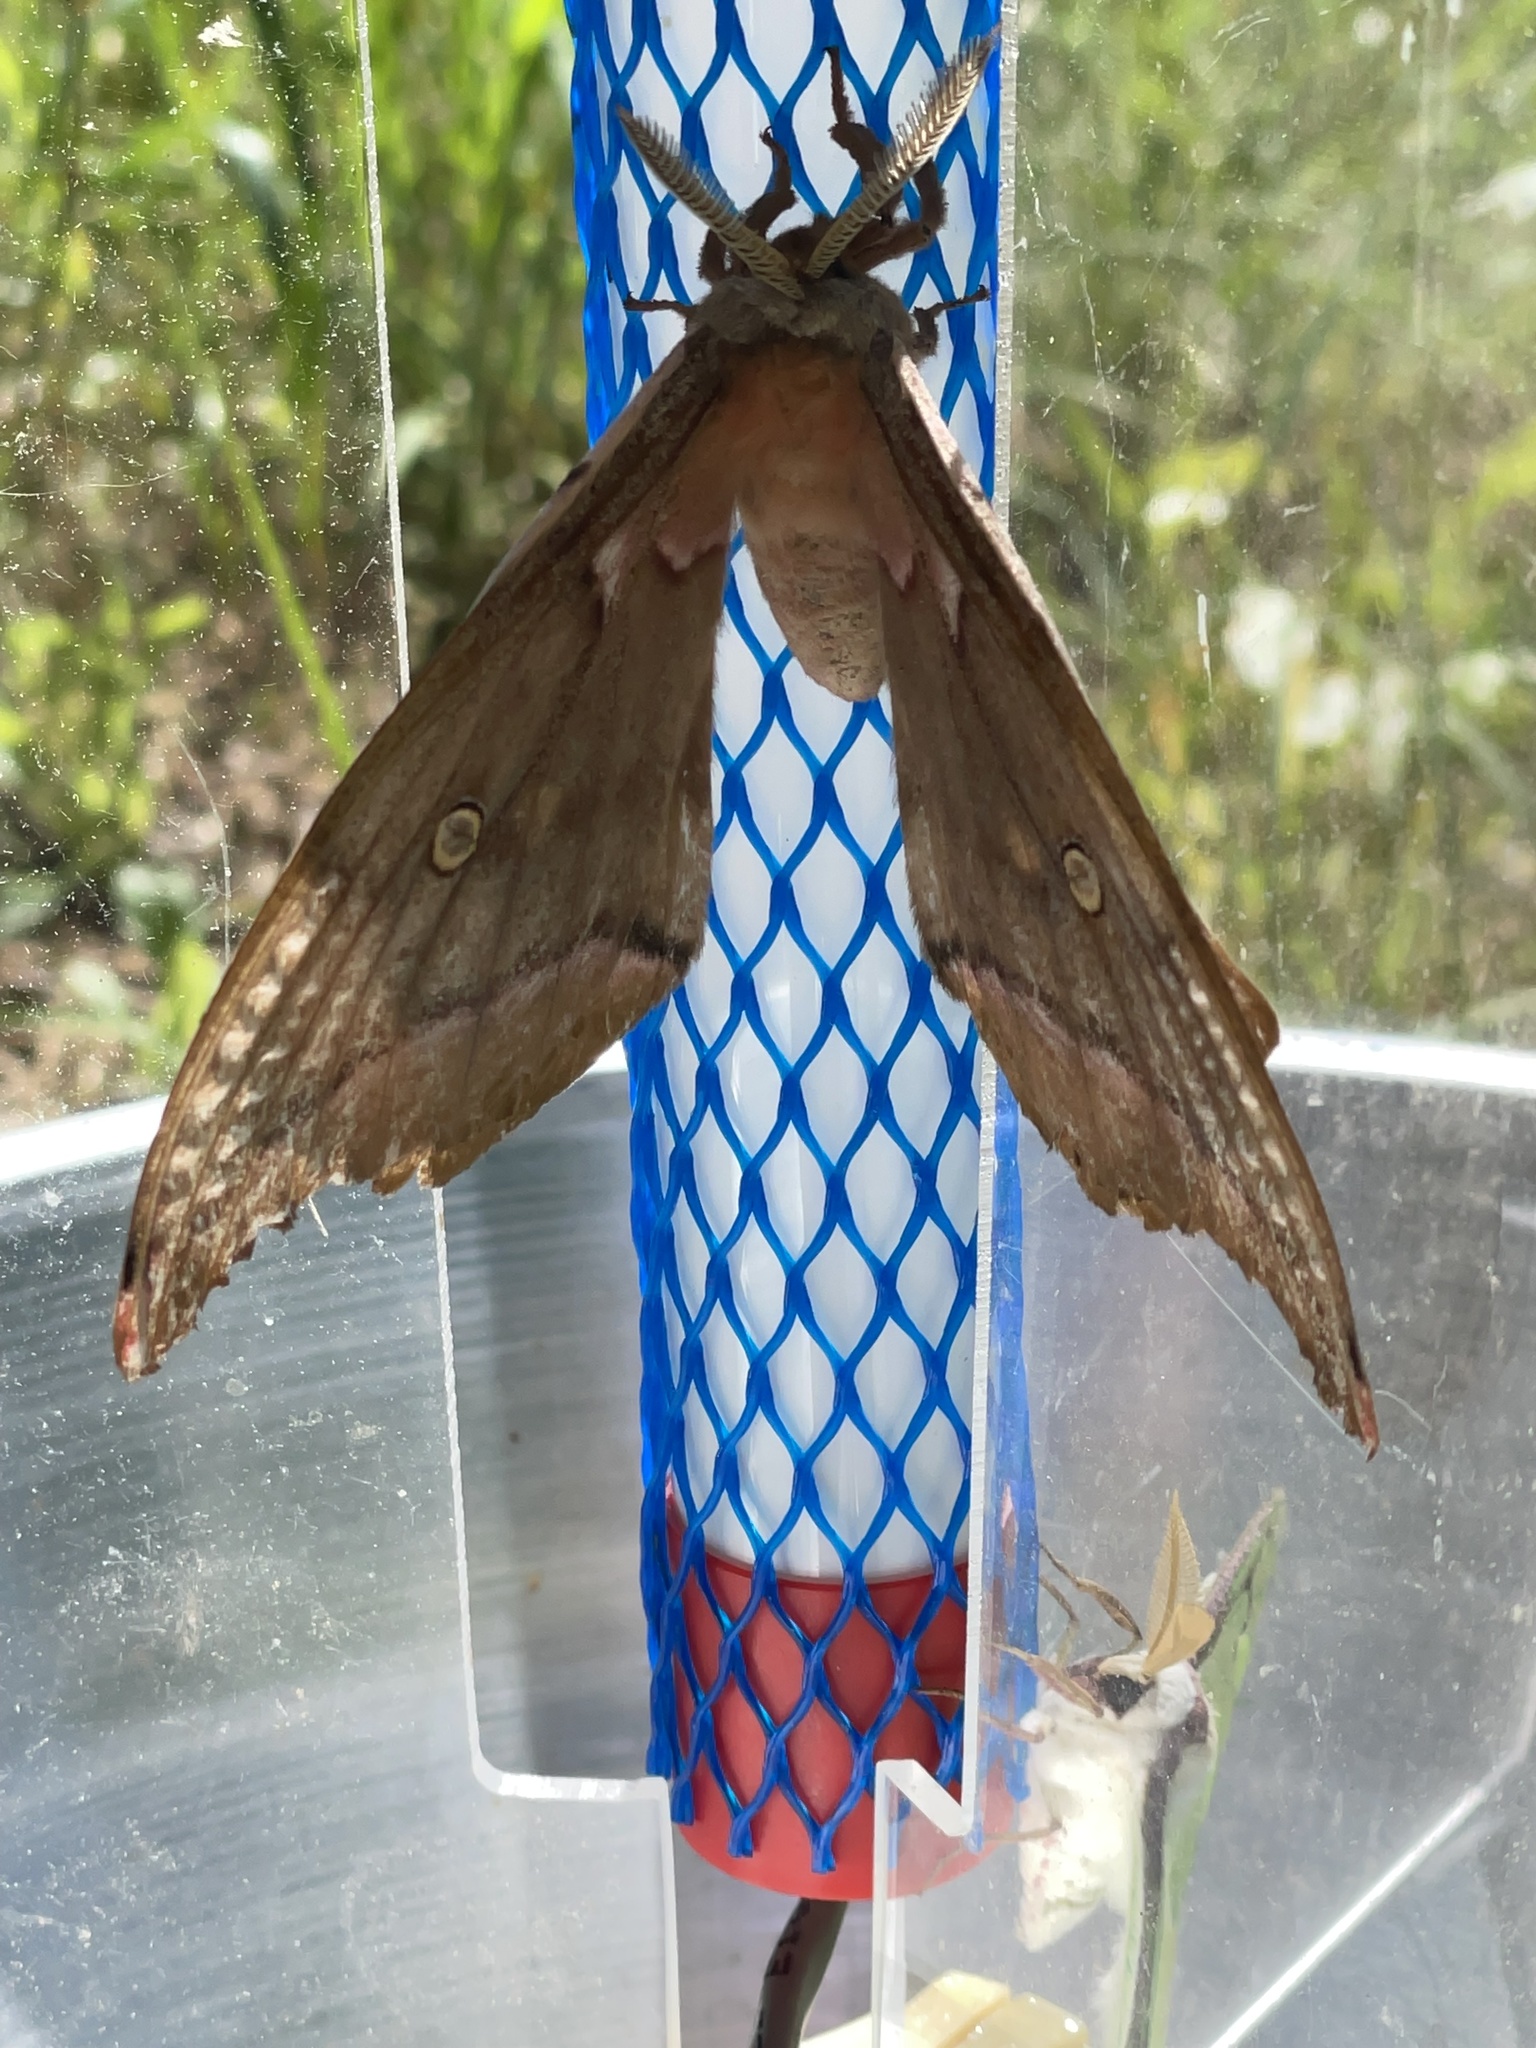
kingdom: Animalia
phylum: Arthropoda
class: Insecta
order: Lepidoptera
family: Saturniidae
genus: Antheraea
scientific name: Antheraea polyphemus
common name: Polyphemus moth
